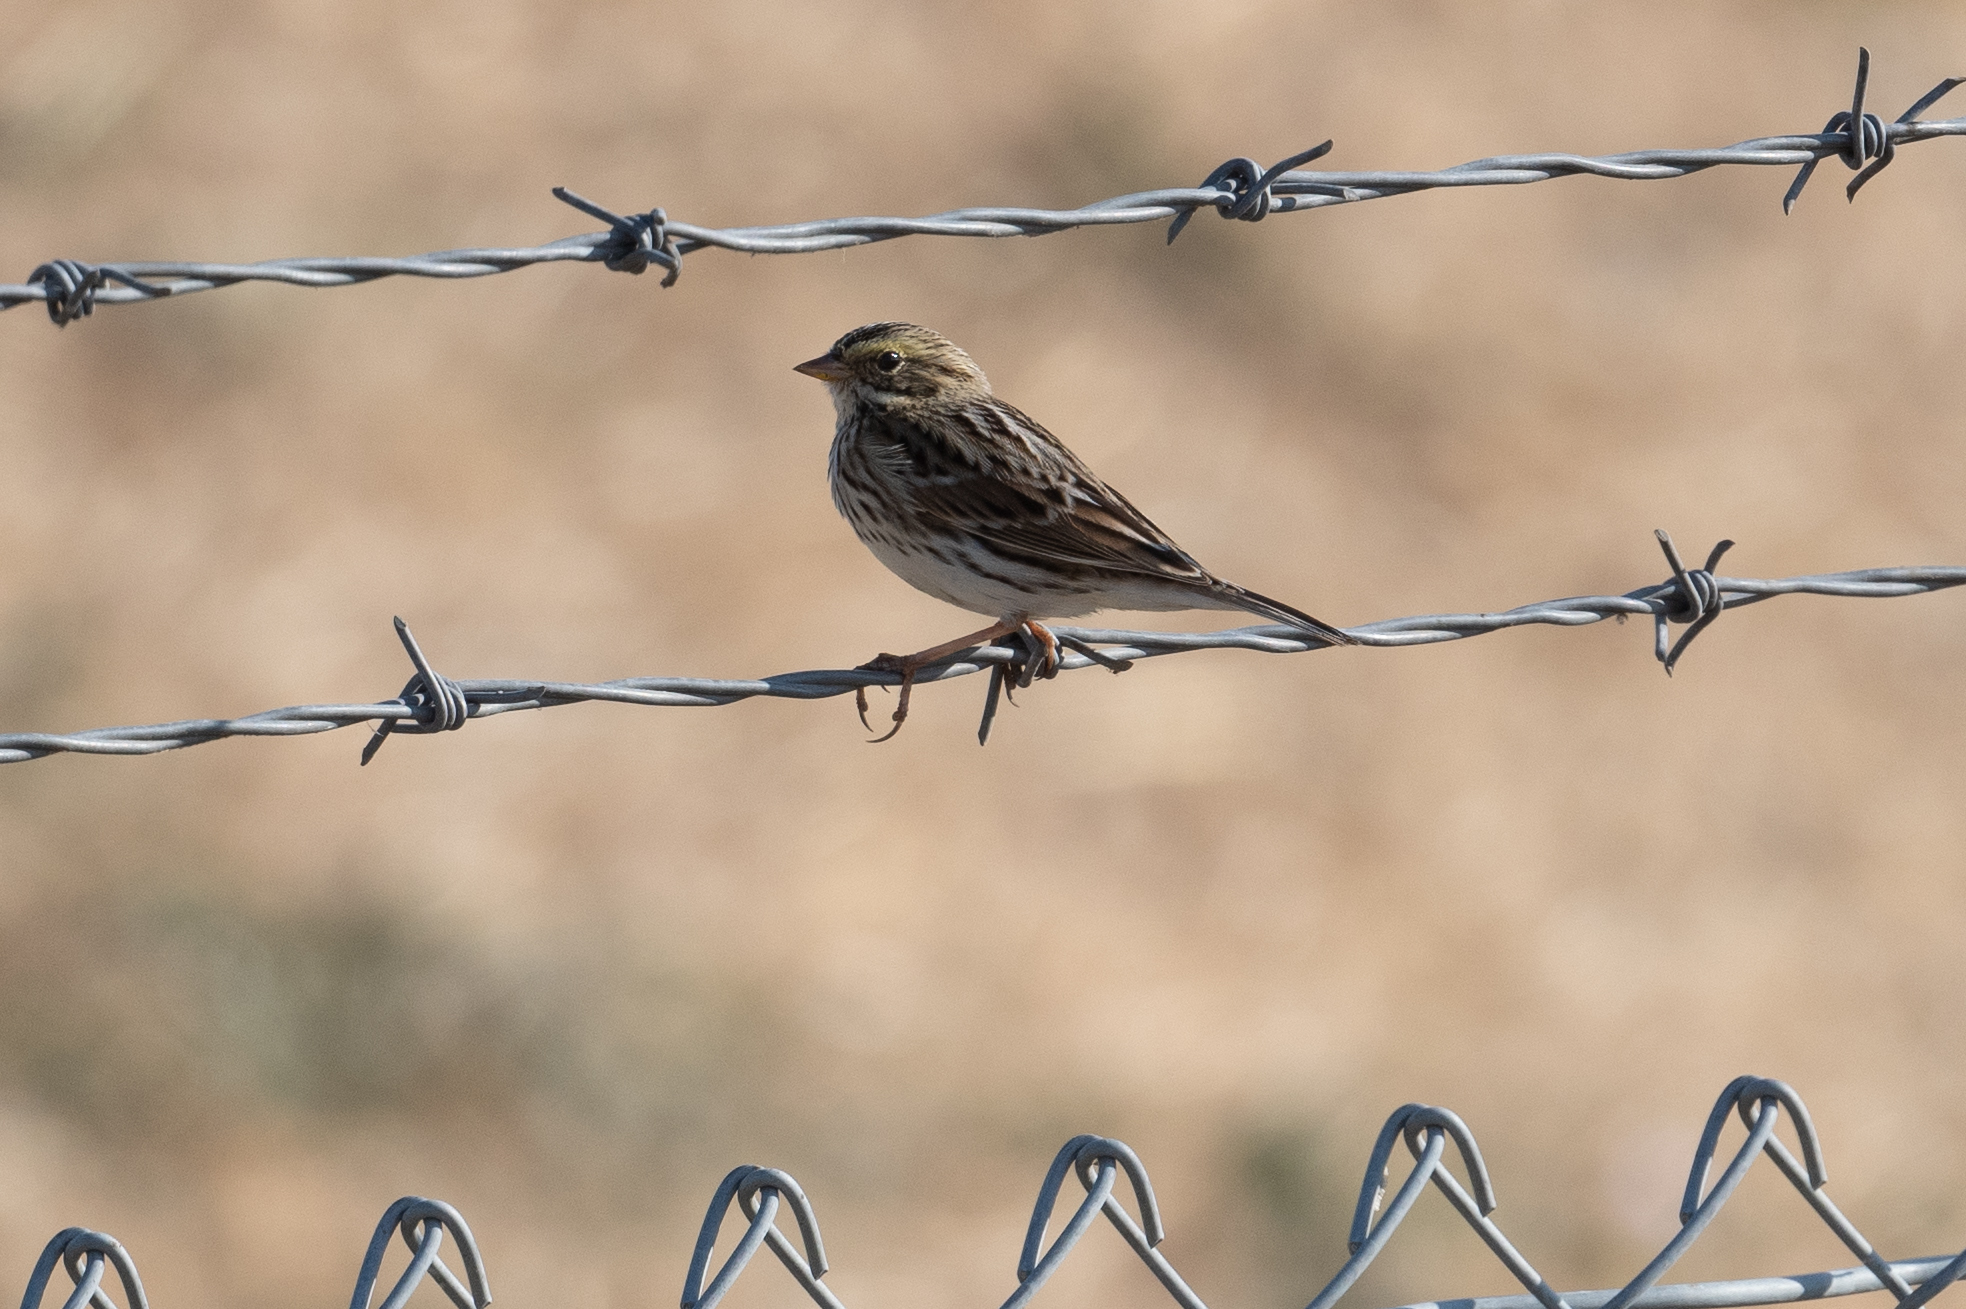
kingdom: Animalia
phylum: Chordata
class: Aves
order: Passeriformes
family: Passerellidae
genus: Passerculus
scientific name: Passerculus sandwichensis
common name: Savannah sparrow
